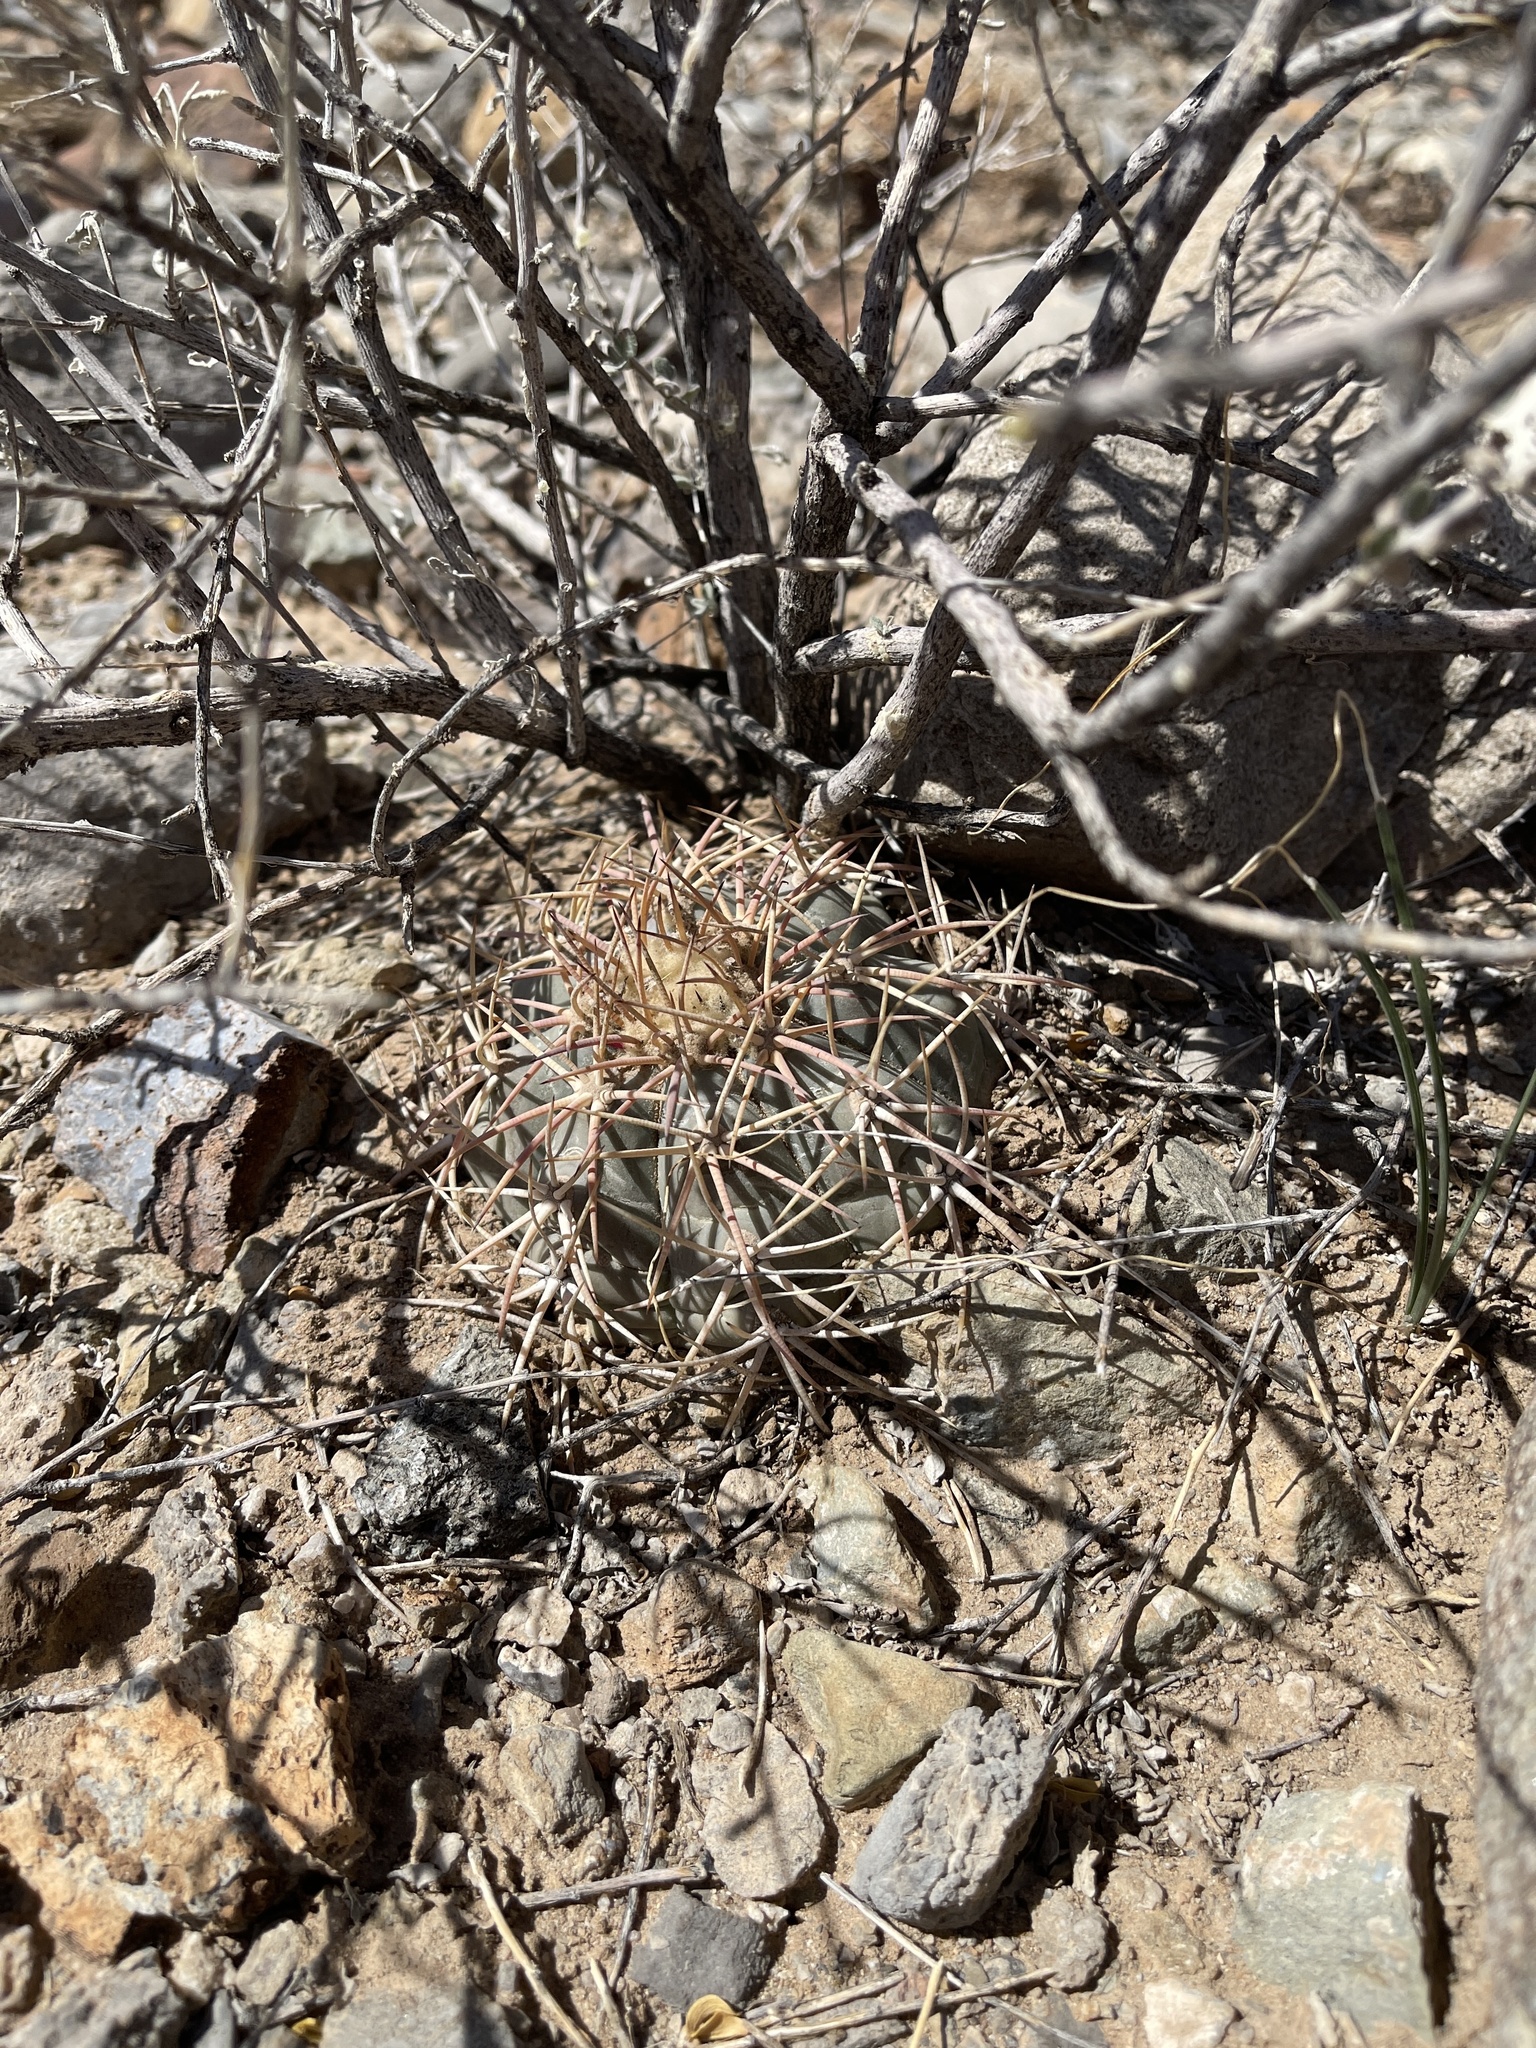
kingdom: Plantae
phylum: Tracheophyta
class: Magnoliopsida
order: Caryophyllales
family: Cactaceae
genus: Echinocactus
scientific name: Echinocactus horizonthalonius
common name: Devilshead
